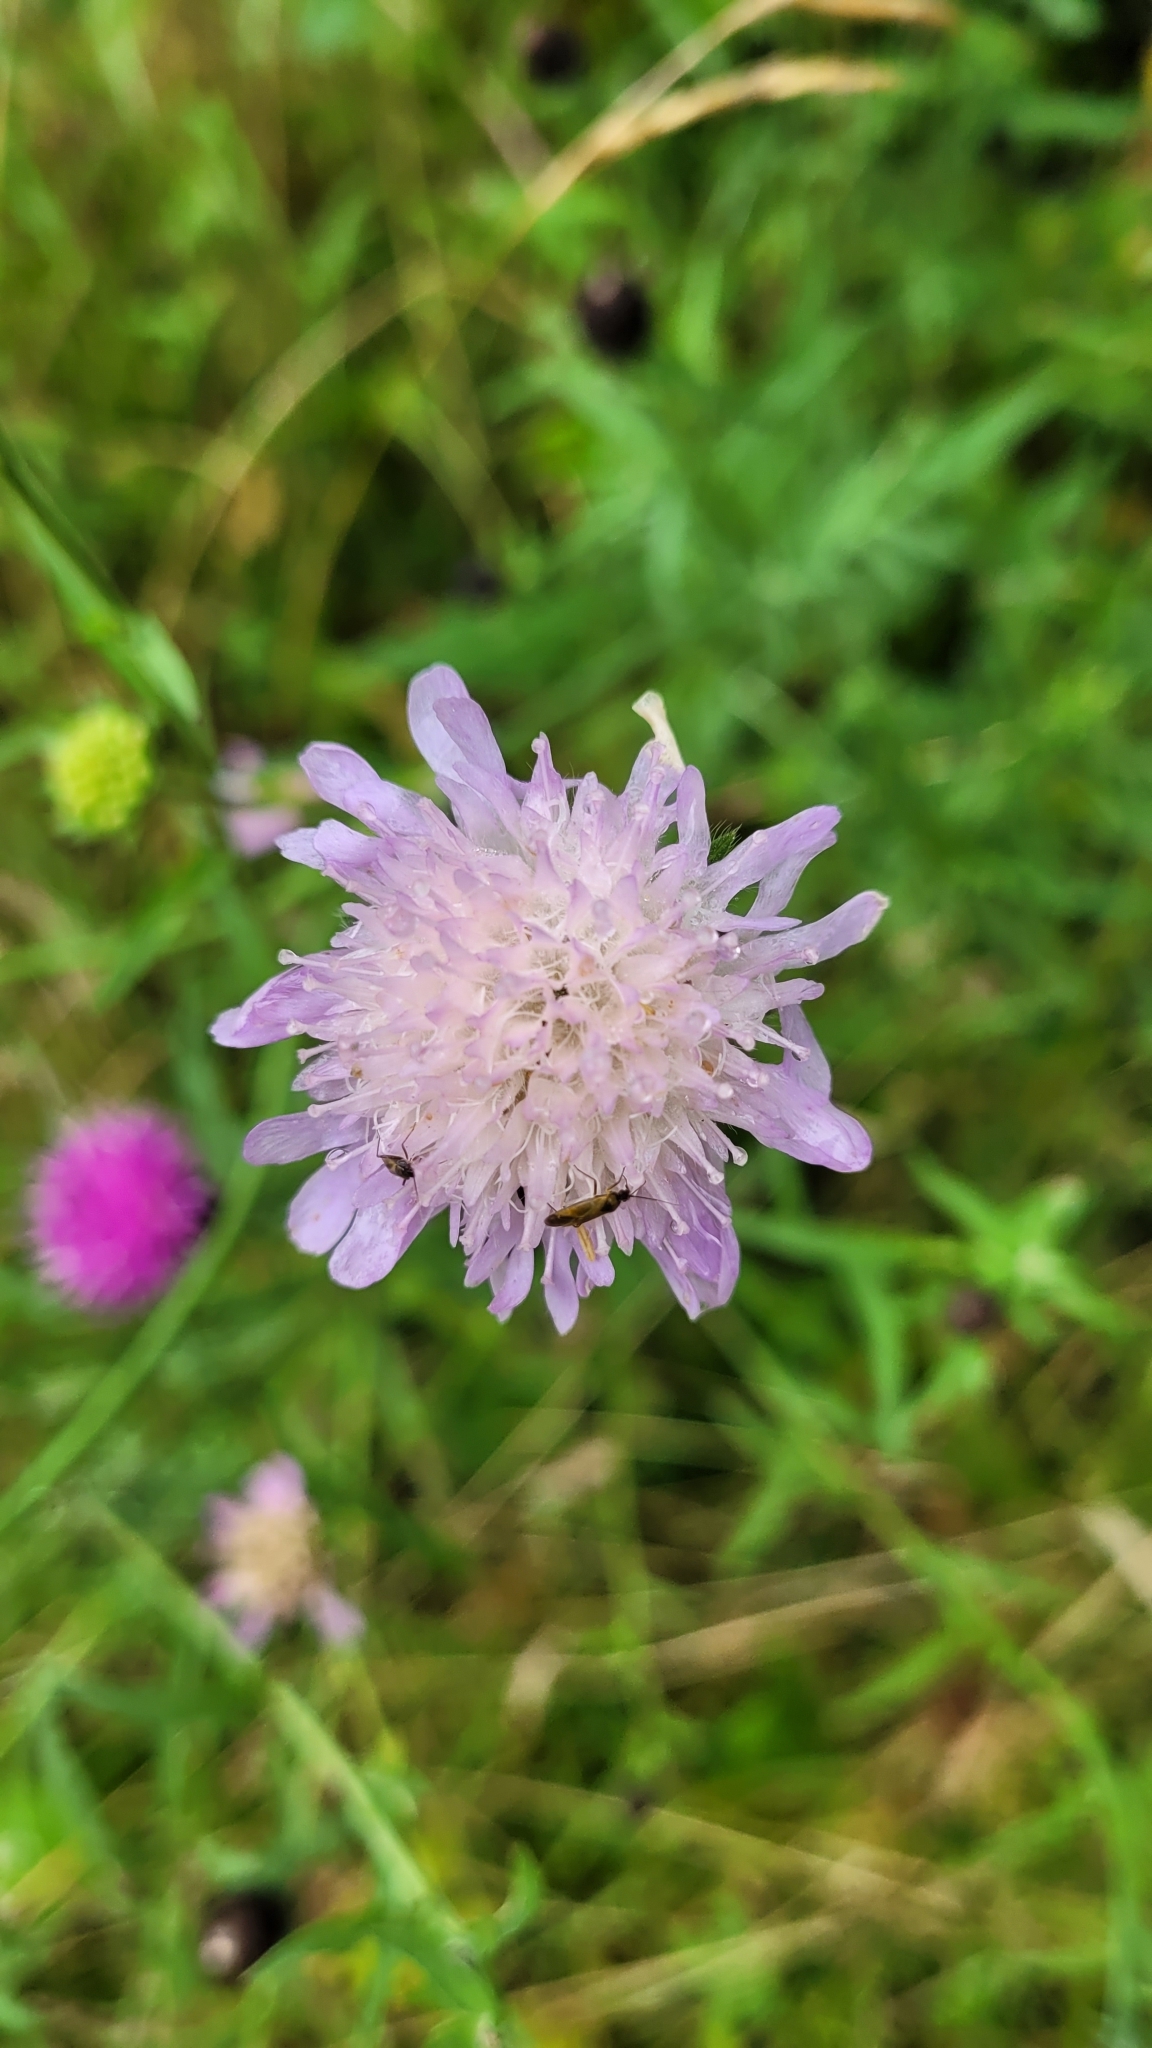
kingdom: Plantae
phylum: Tracheophyta
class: Magnoliopsida
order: Dipsacales
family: Caprifoliaceae
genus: Knautia
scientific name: Knautia arvensis
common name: Field scabiosa
